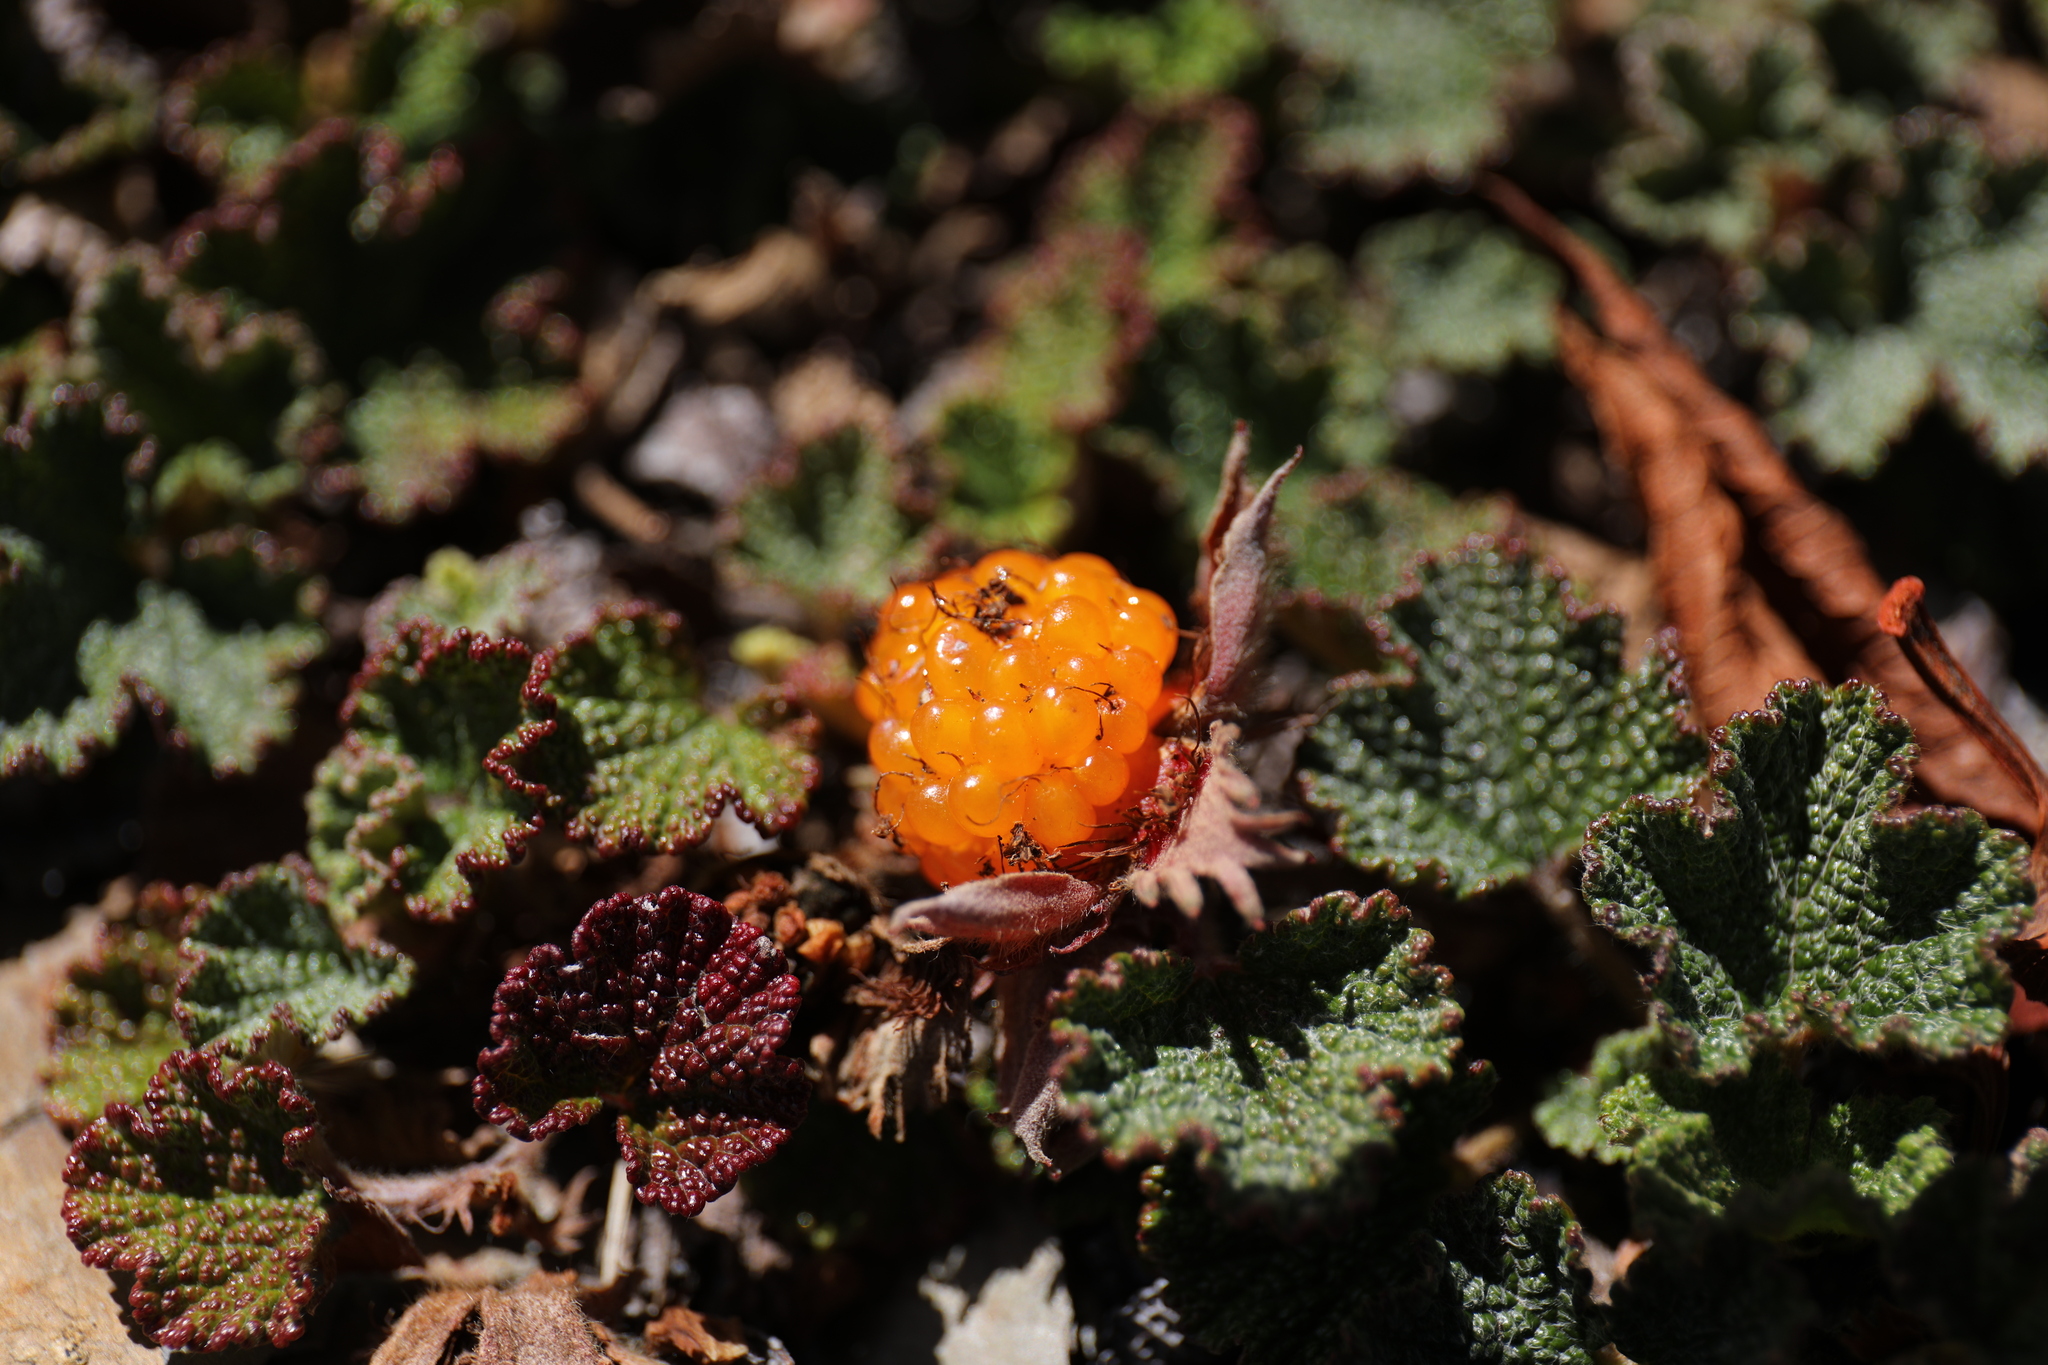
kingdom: Plantae
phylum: Tracheophyta
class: Magnoliopsida
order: Rosales
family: Rosaceae
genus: Rubus
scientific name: Rubus rolfei
